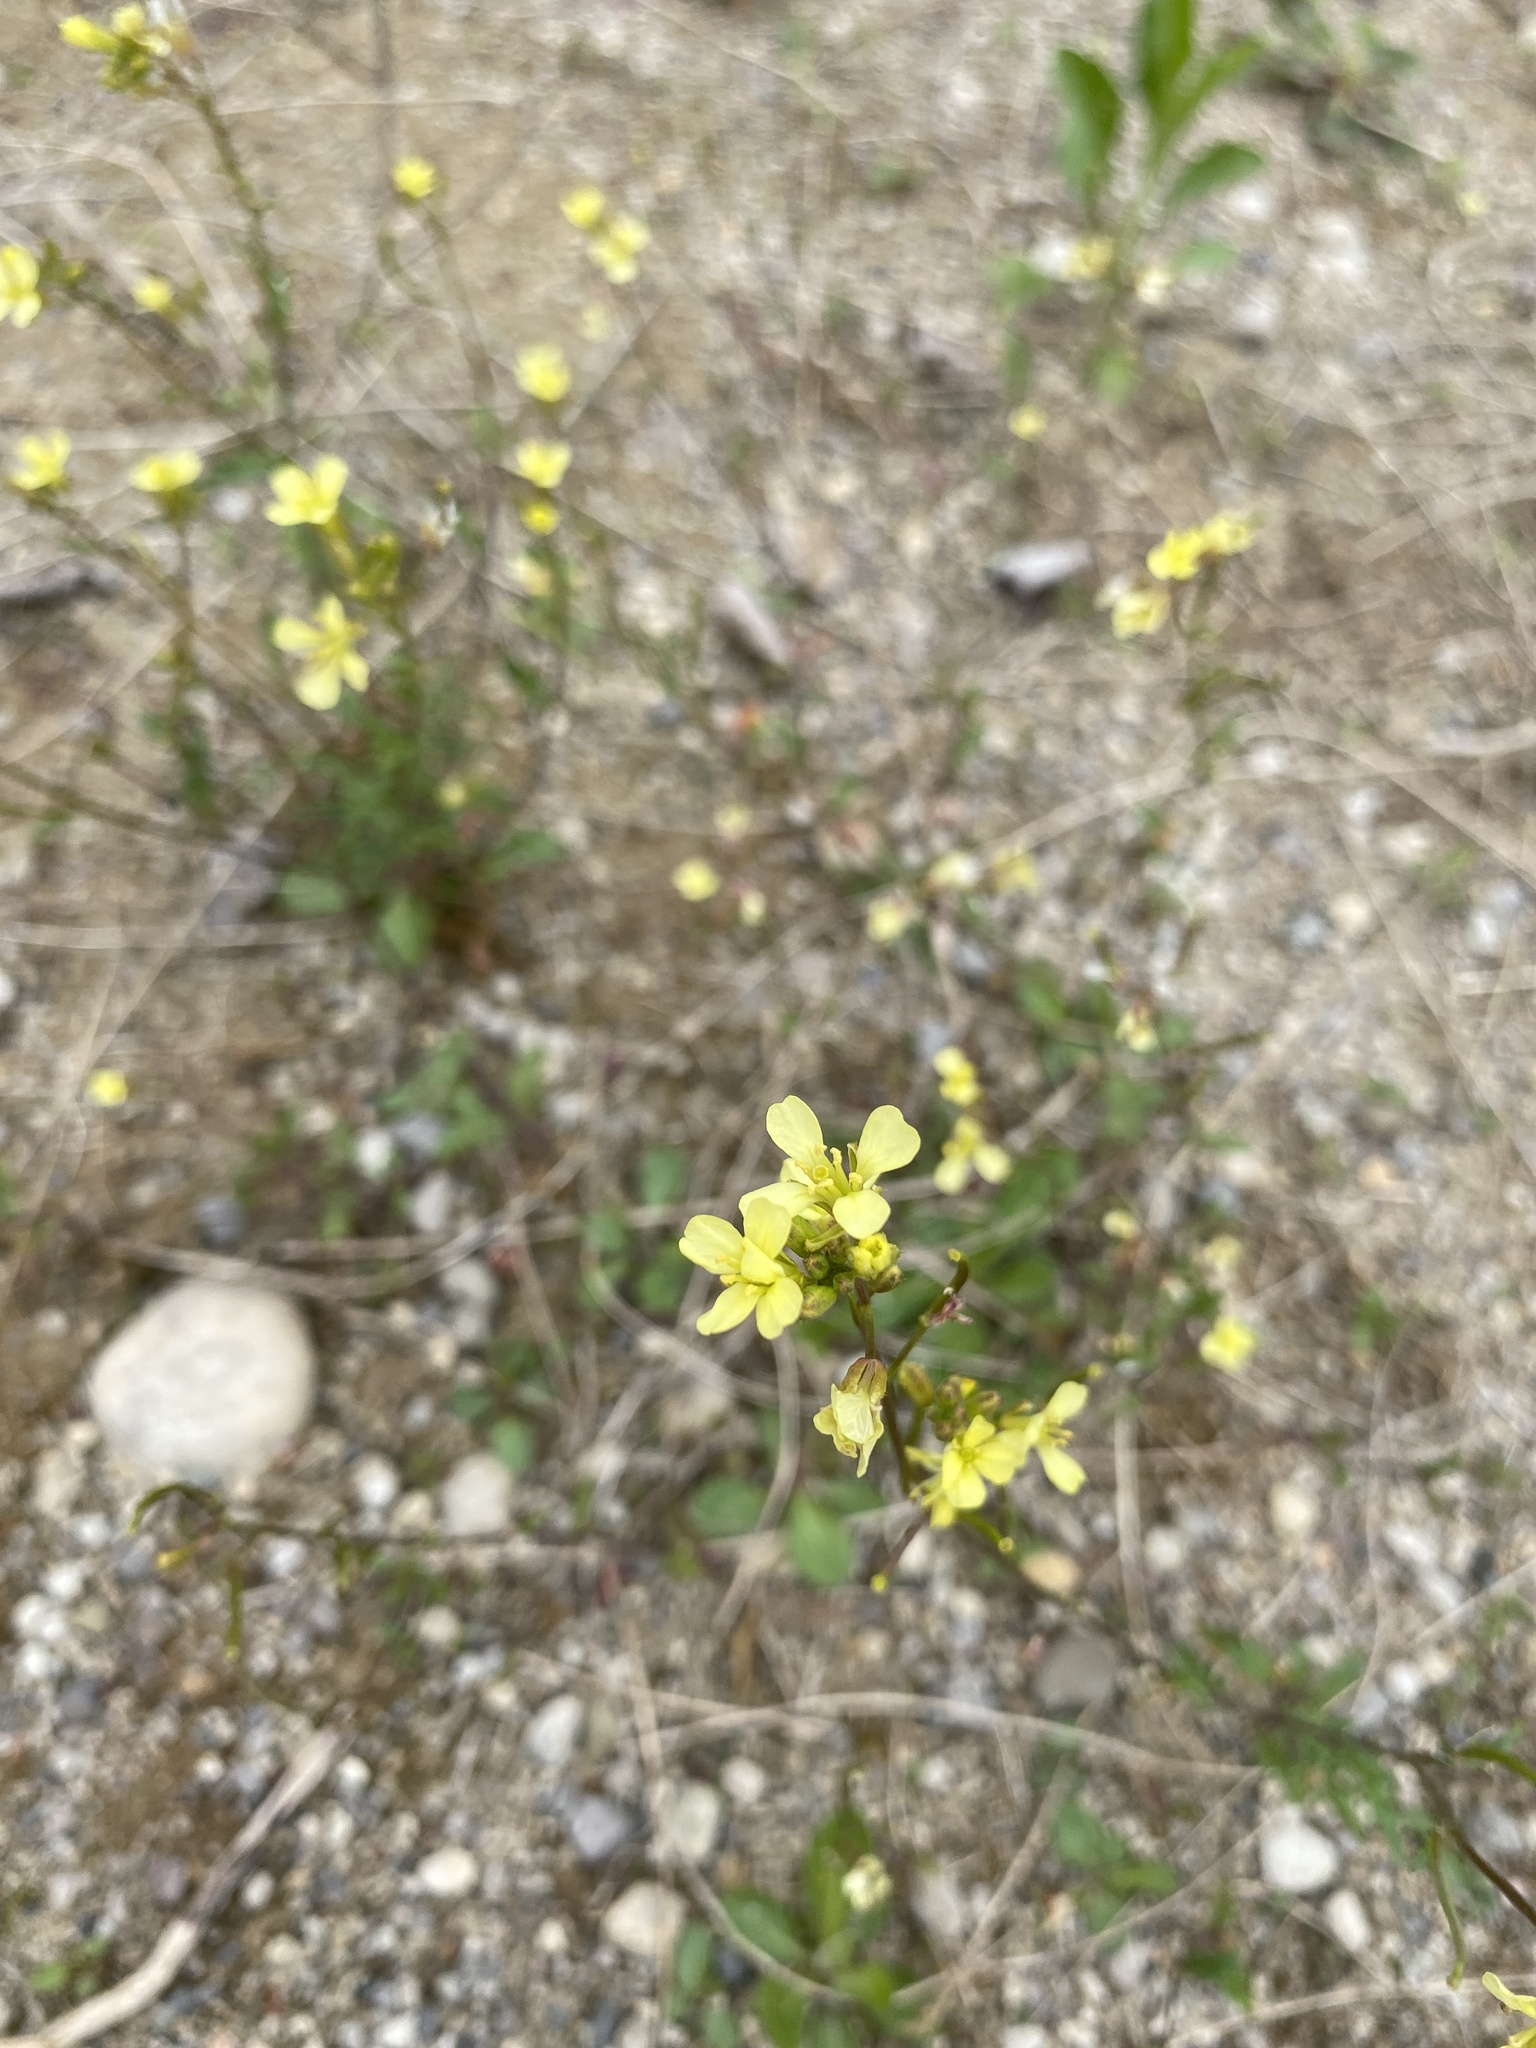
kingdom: Plantae
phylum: Tracheophyta
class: Magnoliopsida
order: Brassicales
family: Brassicaceae
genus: Erucastrum
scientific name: Erucastrum gallicum
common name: Hairy rocket
